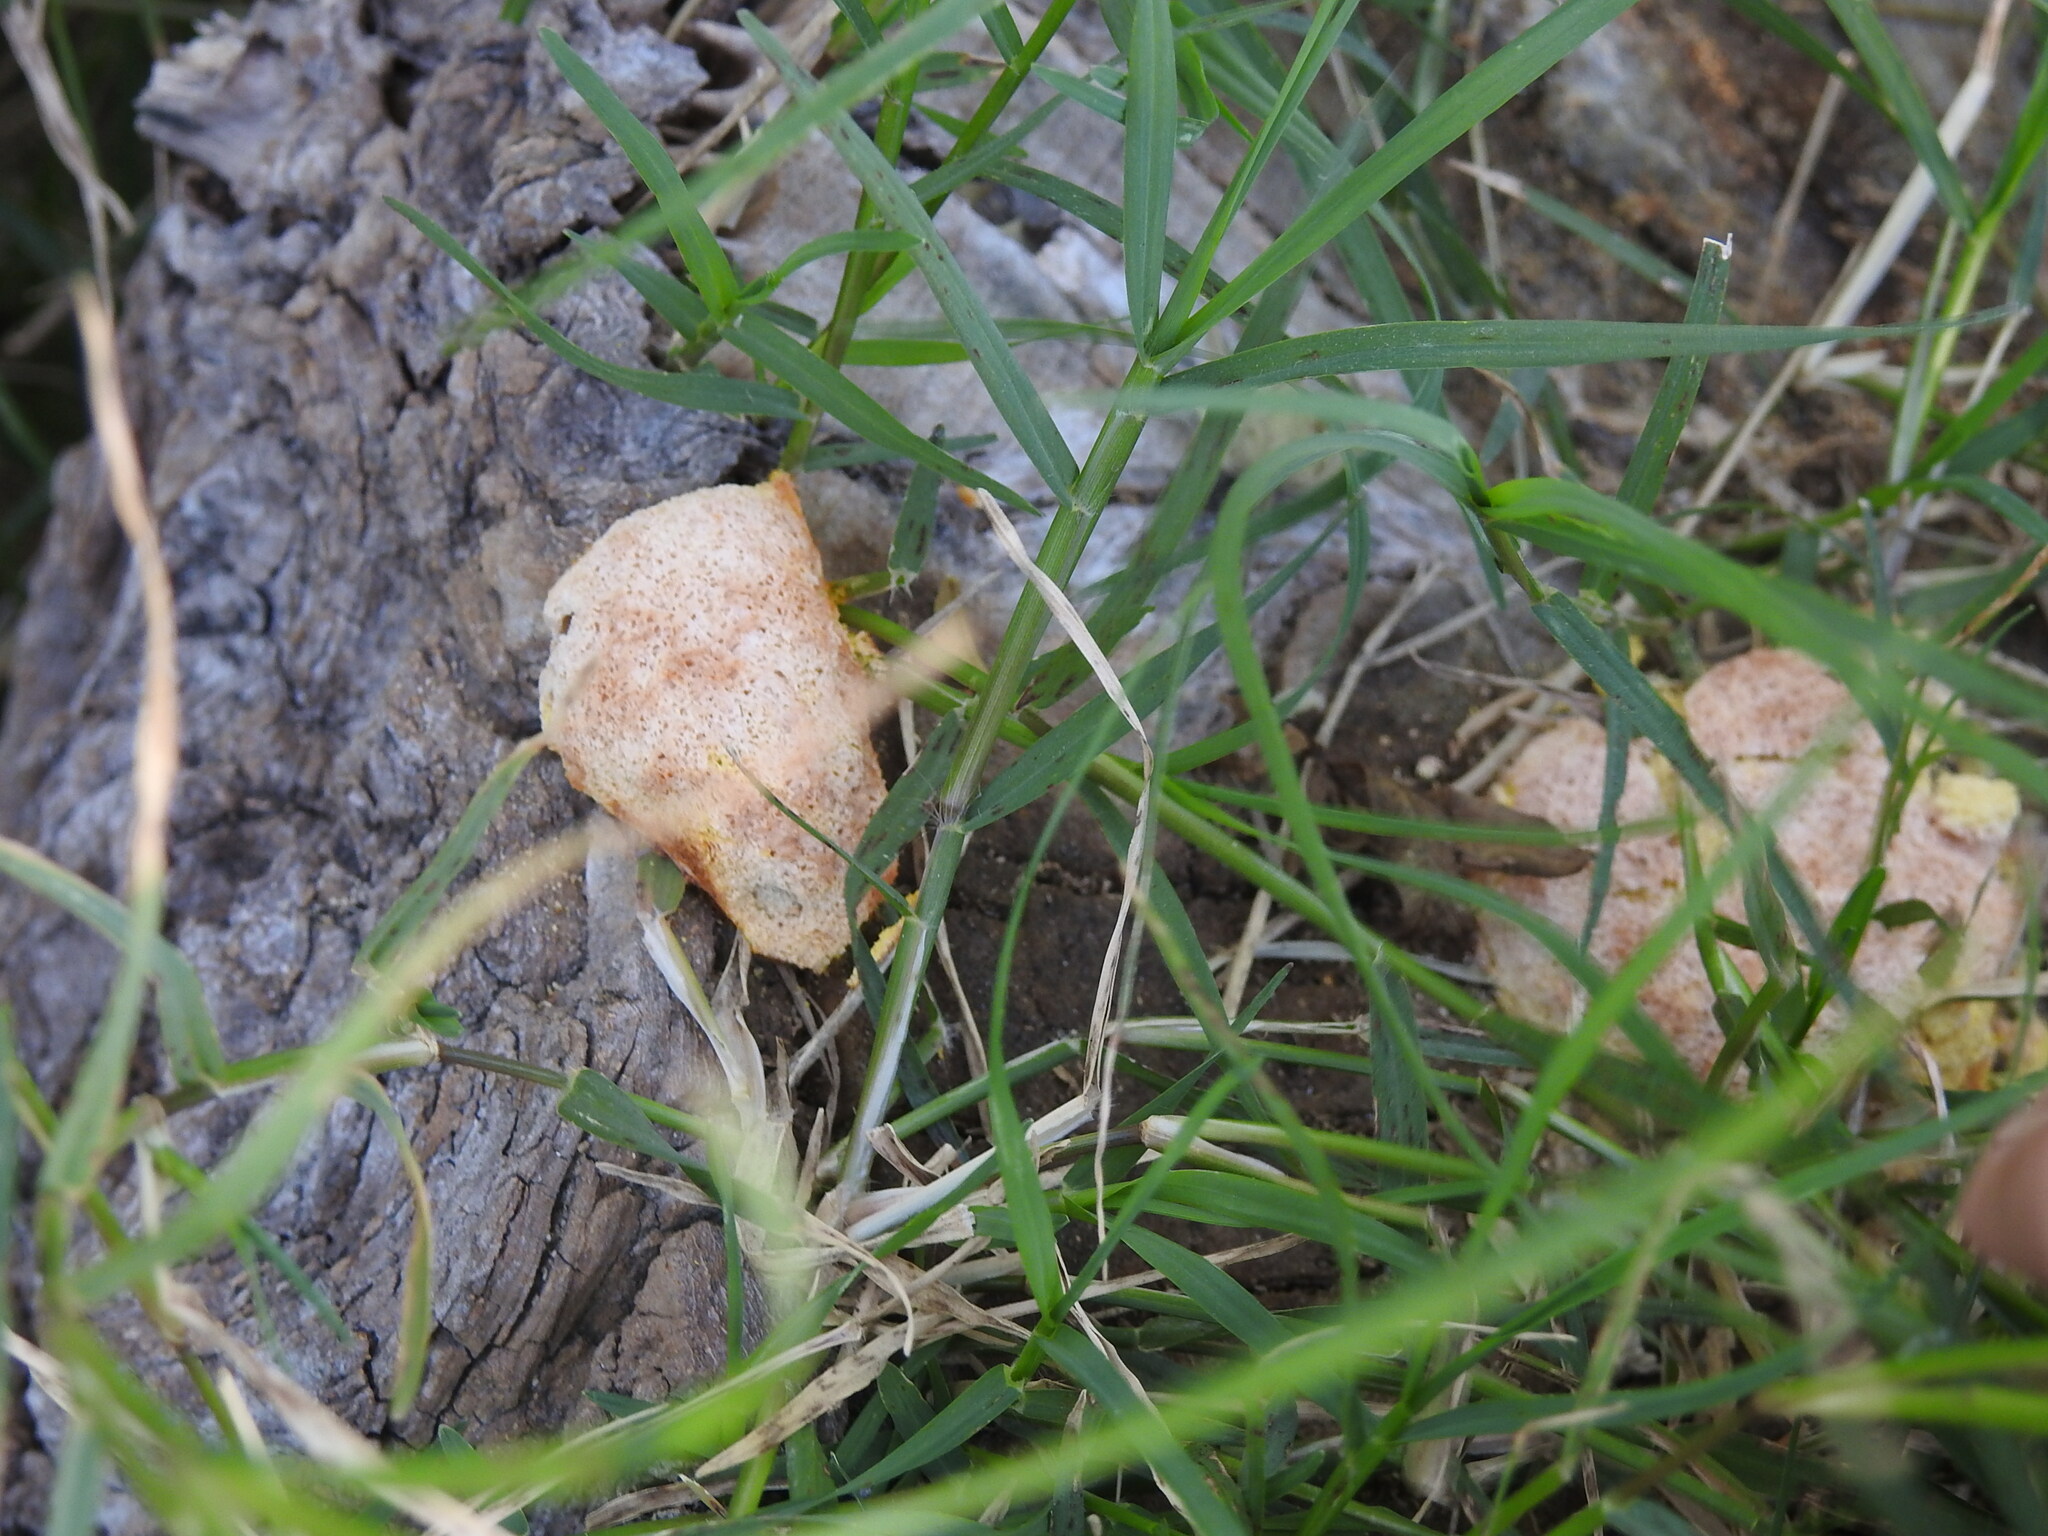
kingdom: Protozoa
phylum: Mycetozoa
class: Myxomycetes
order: Physarales
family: Physaraceae
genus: Fuligo
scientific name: Fuligo septica
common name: Dog vomit slime mold
